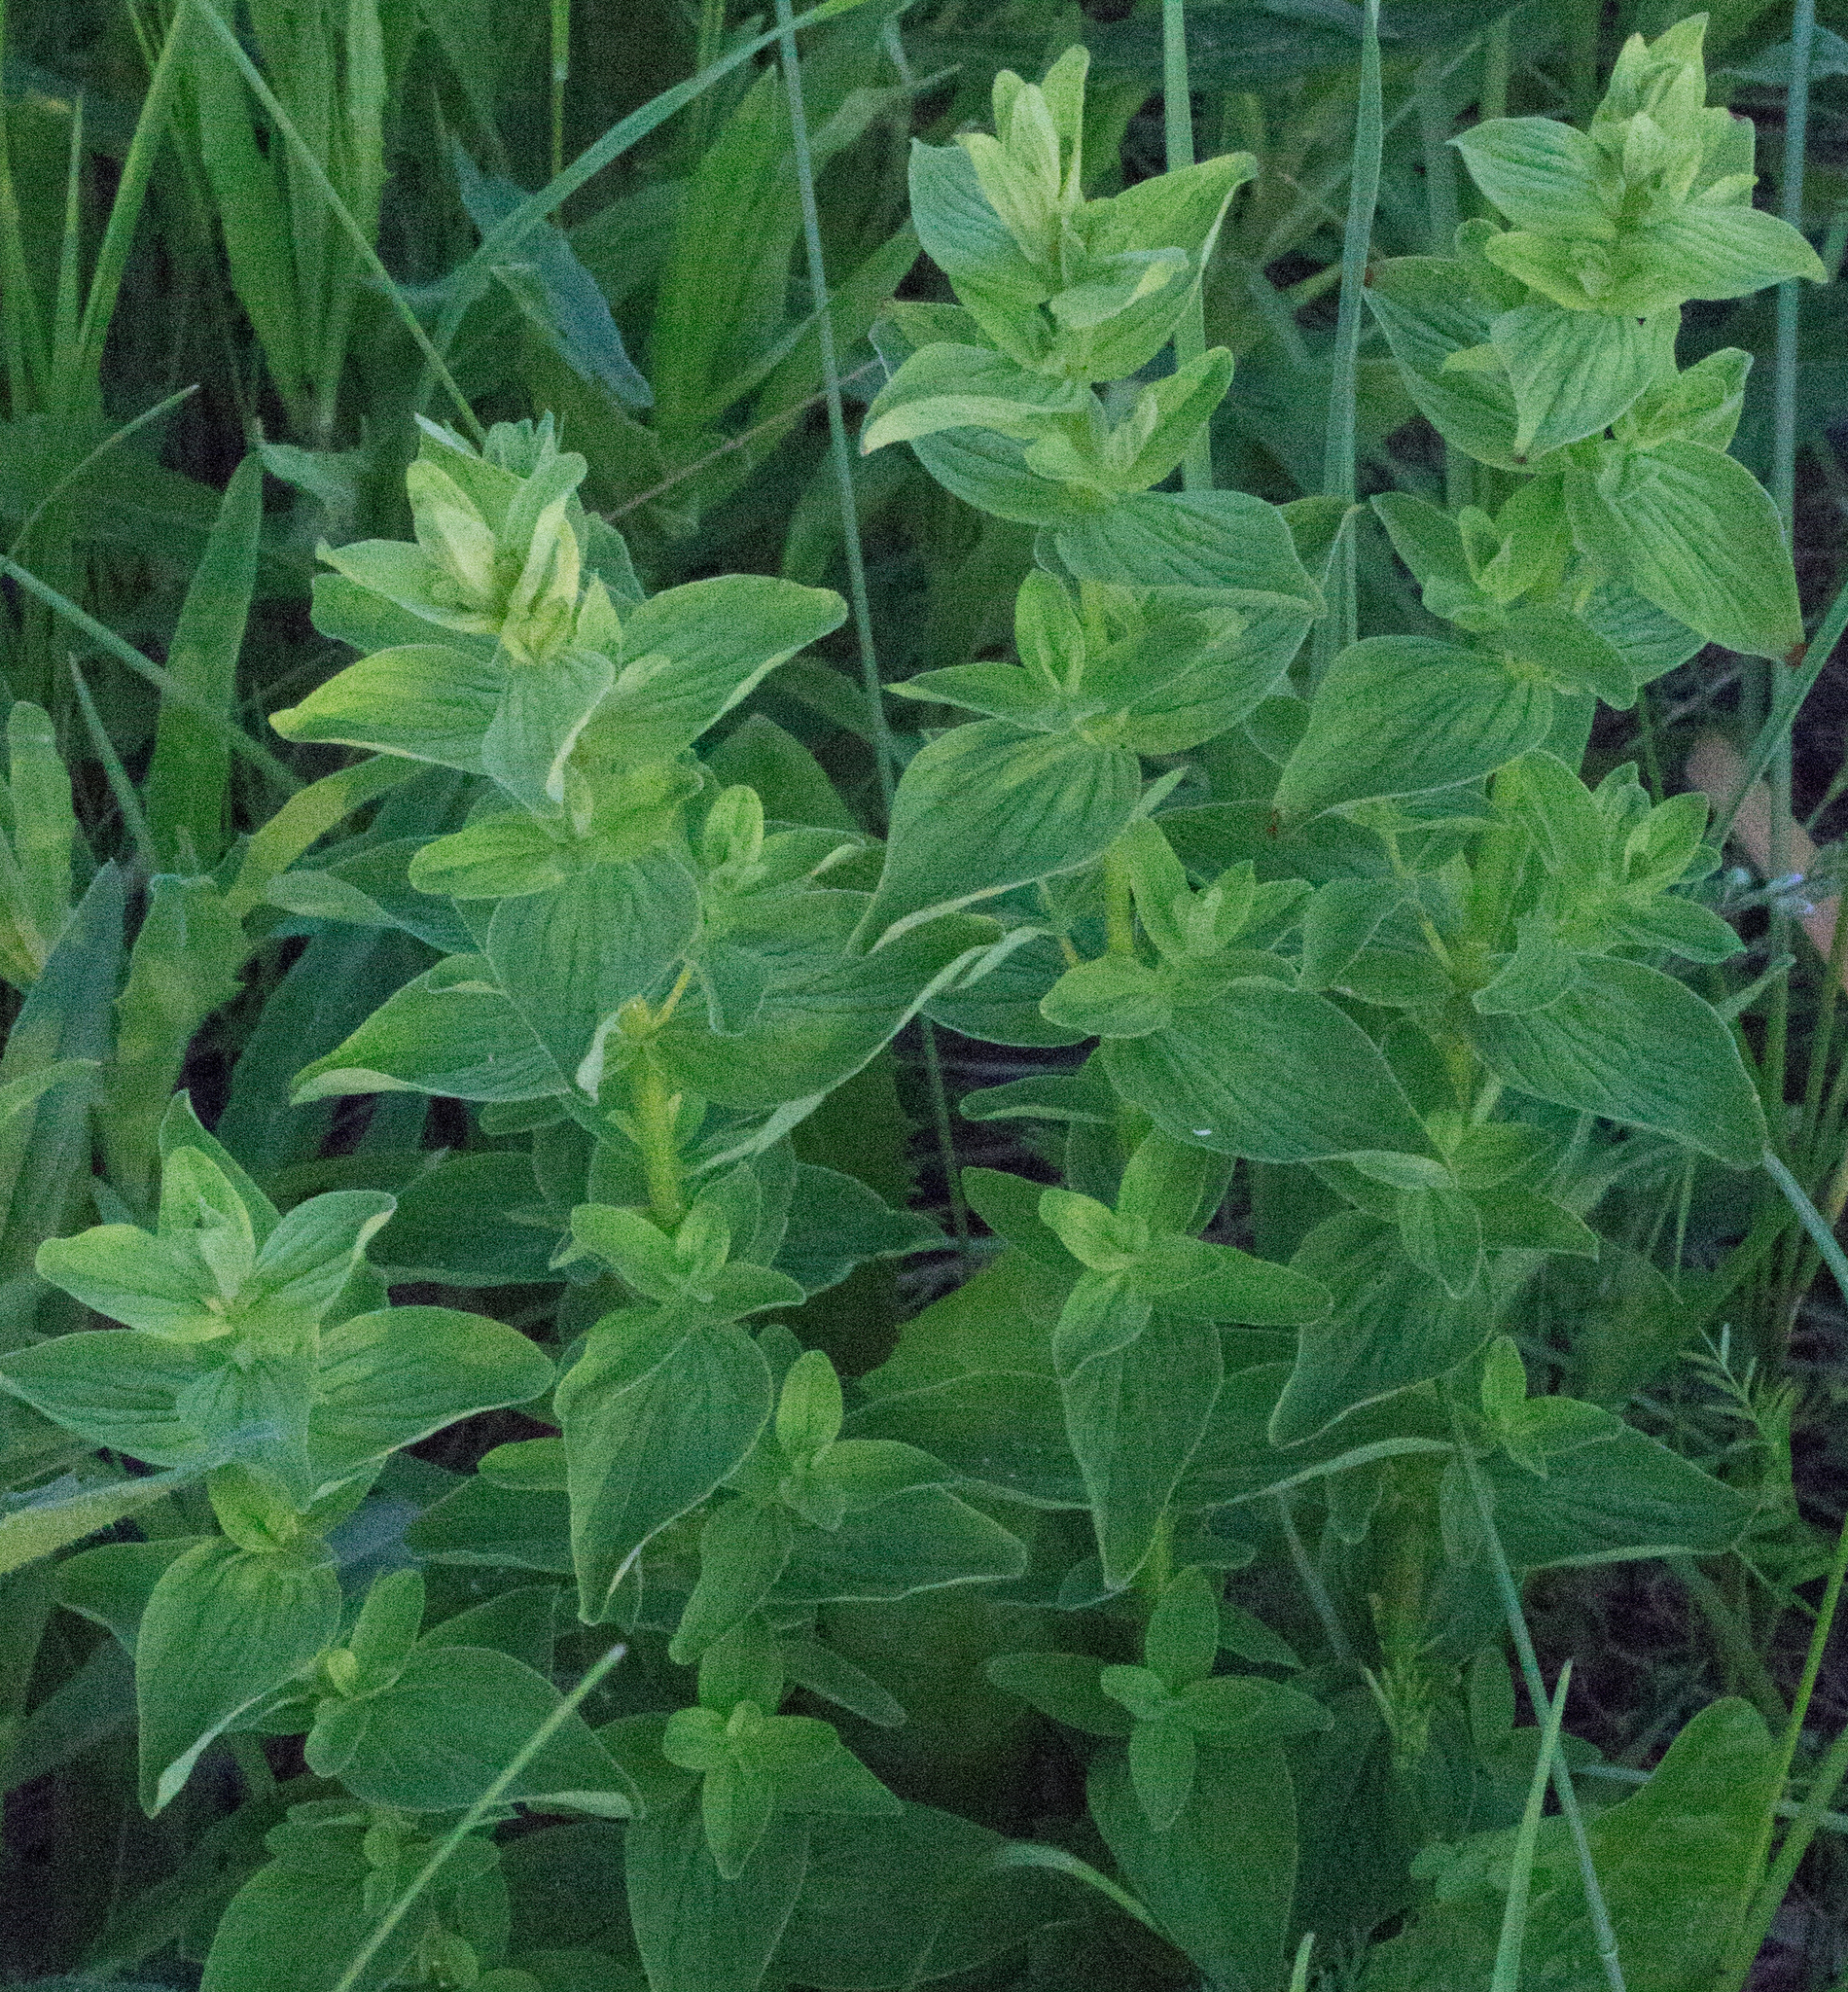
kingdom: Plantae
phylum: Tracheophyta
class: Magnoliopsida
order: Malpighiales
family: Hypericaceae
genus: Hypericum
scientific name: Hypericum maculatum
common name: Imperforate st. john's-wort
